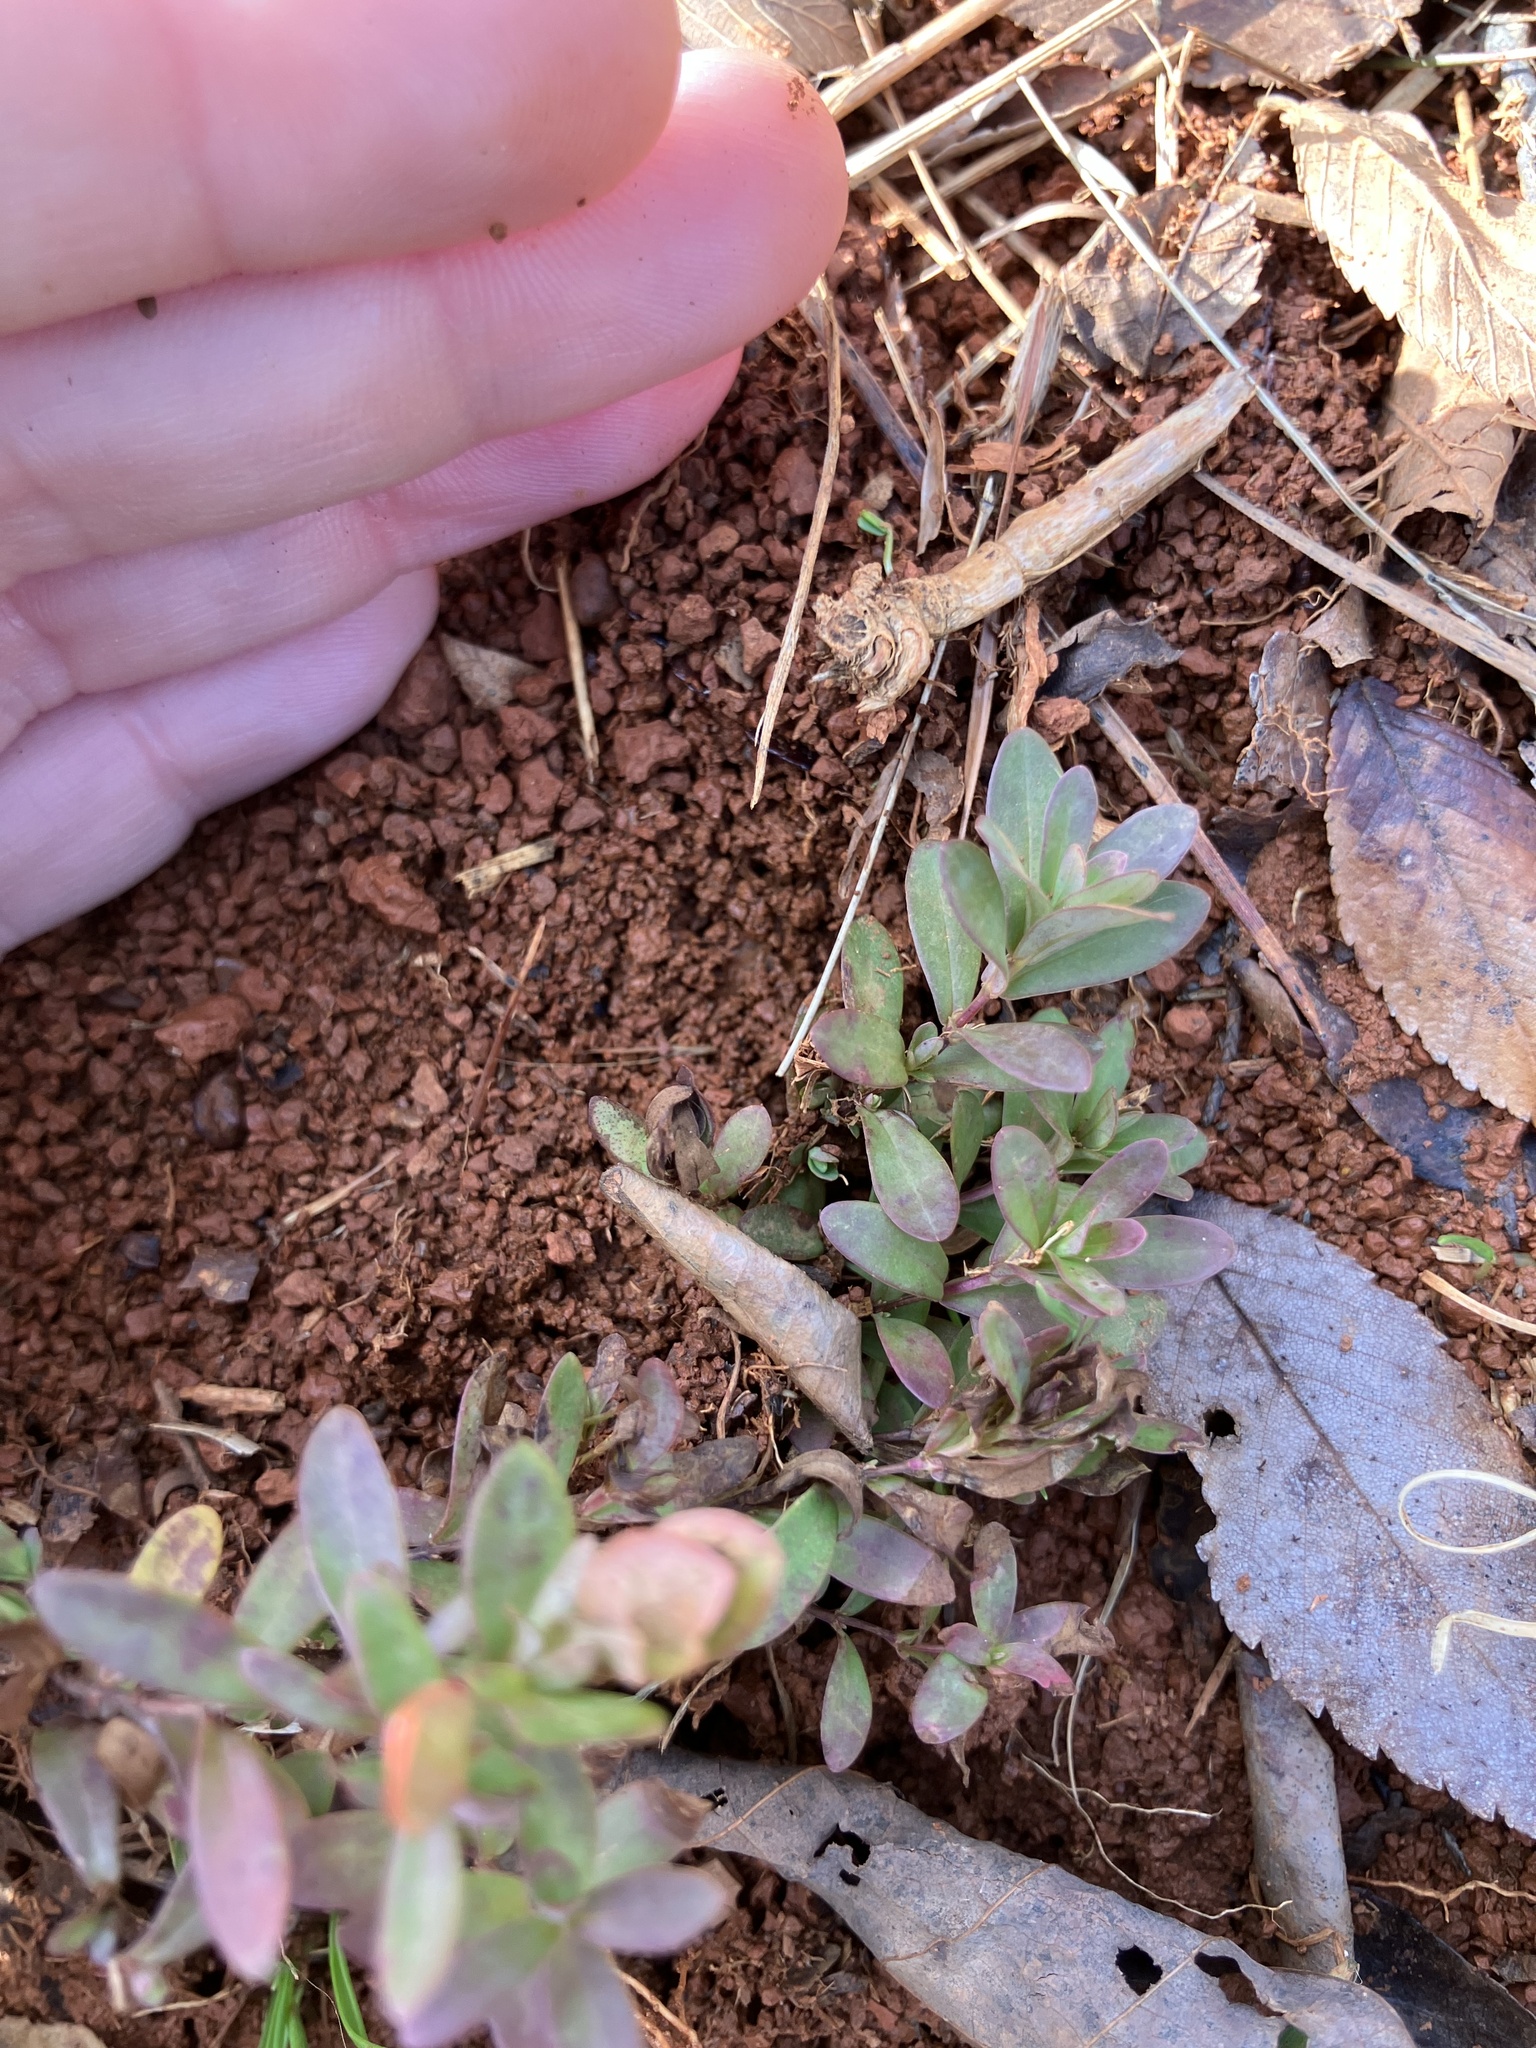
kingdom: Plantae
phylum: Tracheophyta
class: Magnoliopsida
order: Malpighiales
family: Hypericaceae
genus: Hypericum
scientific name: Hypericum hypericoides
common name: St. andrew's cross
